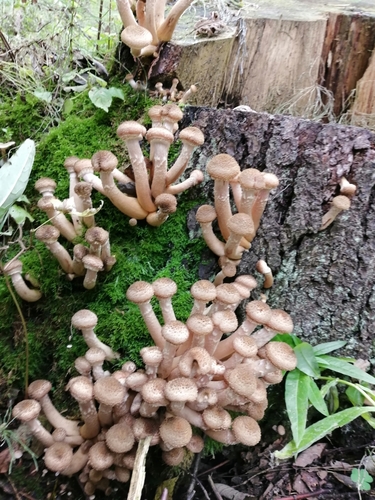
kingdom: Fungi
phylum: Basidiomycota
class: Agaricomycetes
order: Agaricales
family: Physalacriaceae
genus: Armillaria
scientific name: Armillaria mellea
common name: Honey fungus
